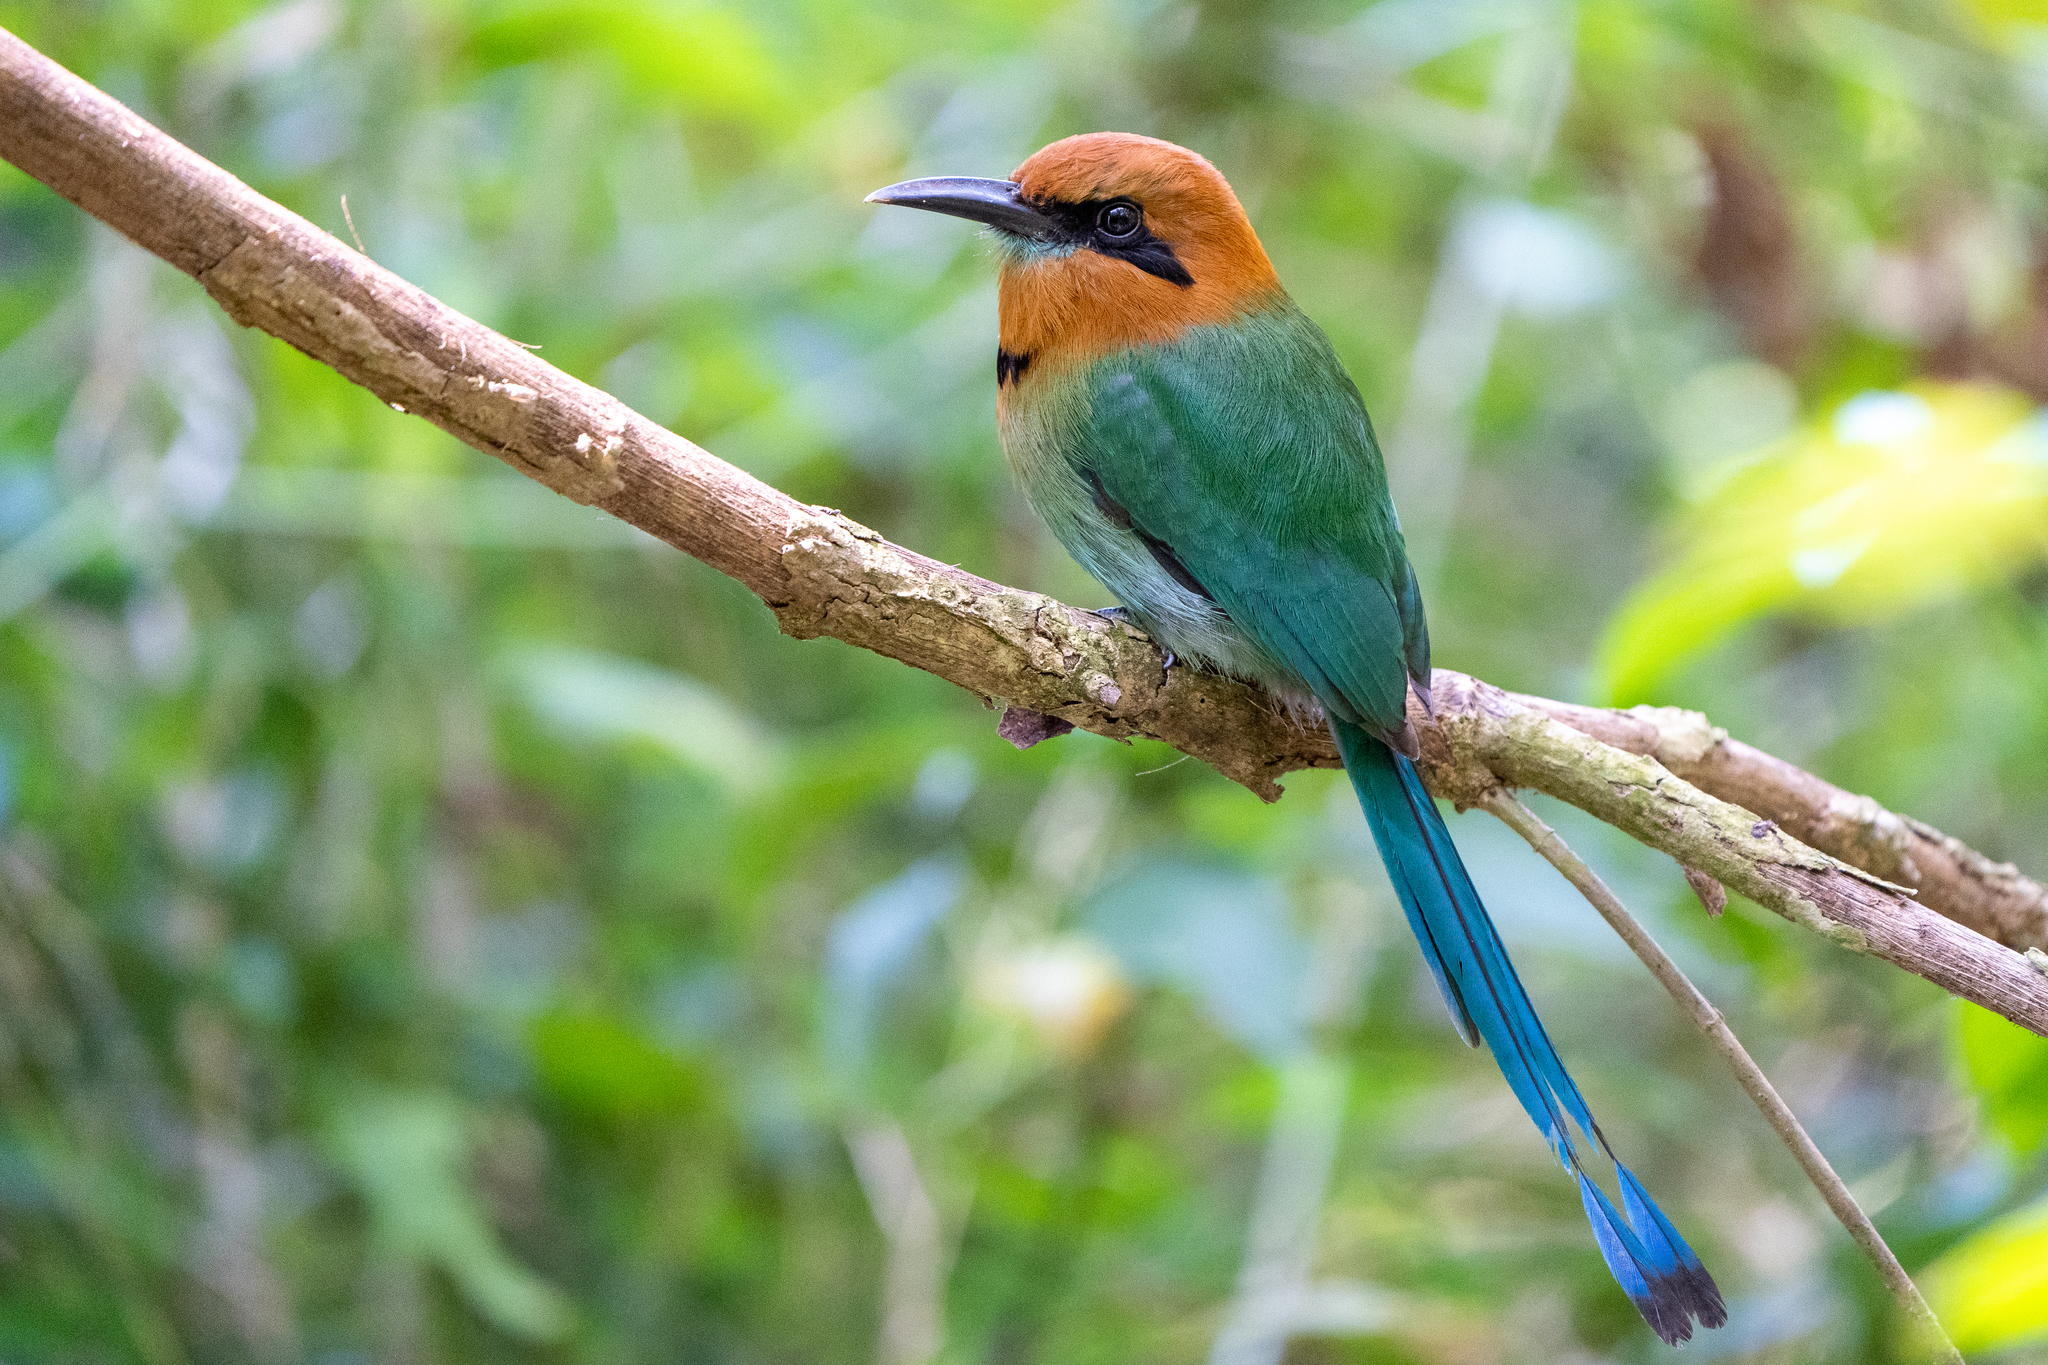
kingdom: Animalia
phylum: Chordata
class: Aves
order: Coraciiformes
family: Momotidae
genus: Electron
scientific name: Electron platyrhynchum
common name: Broad-billed motmot
